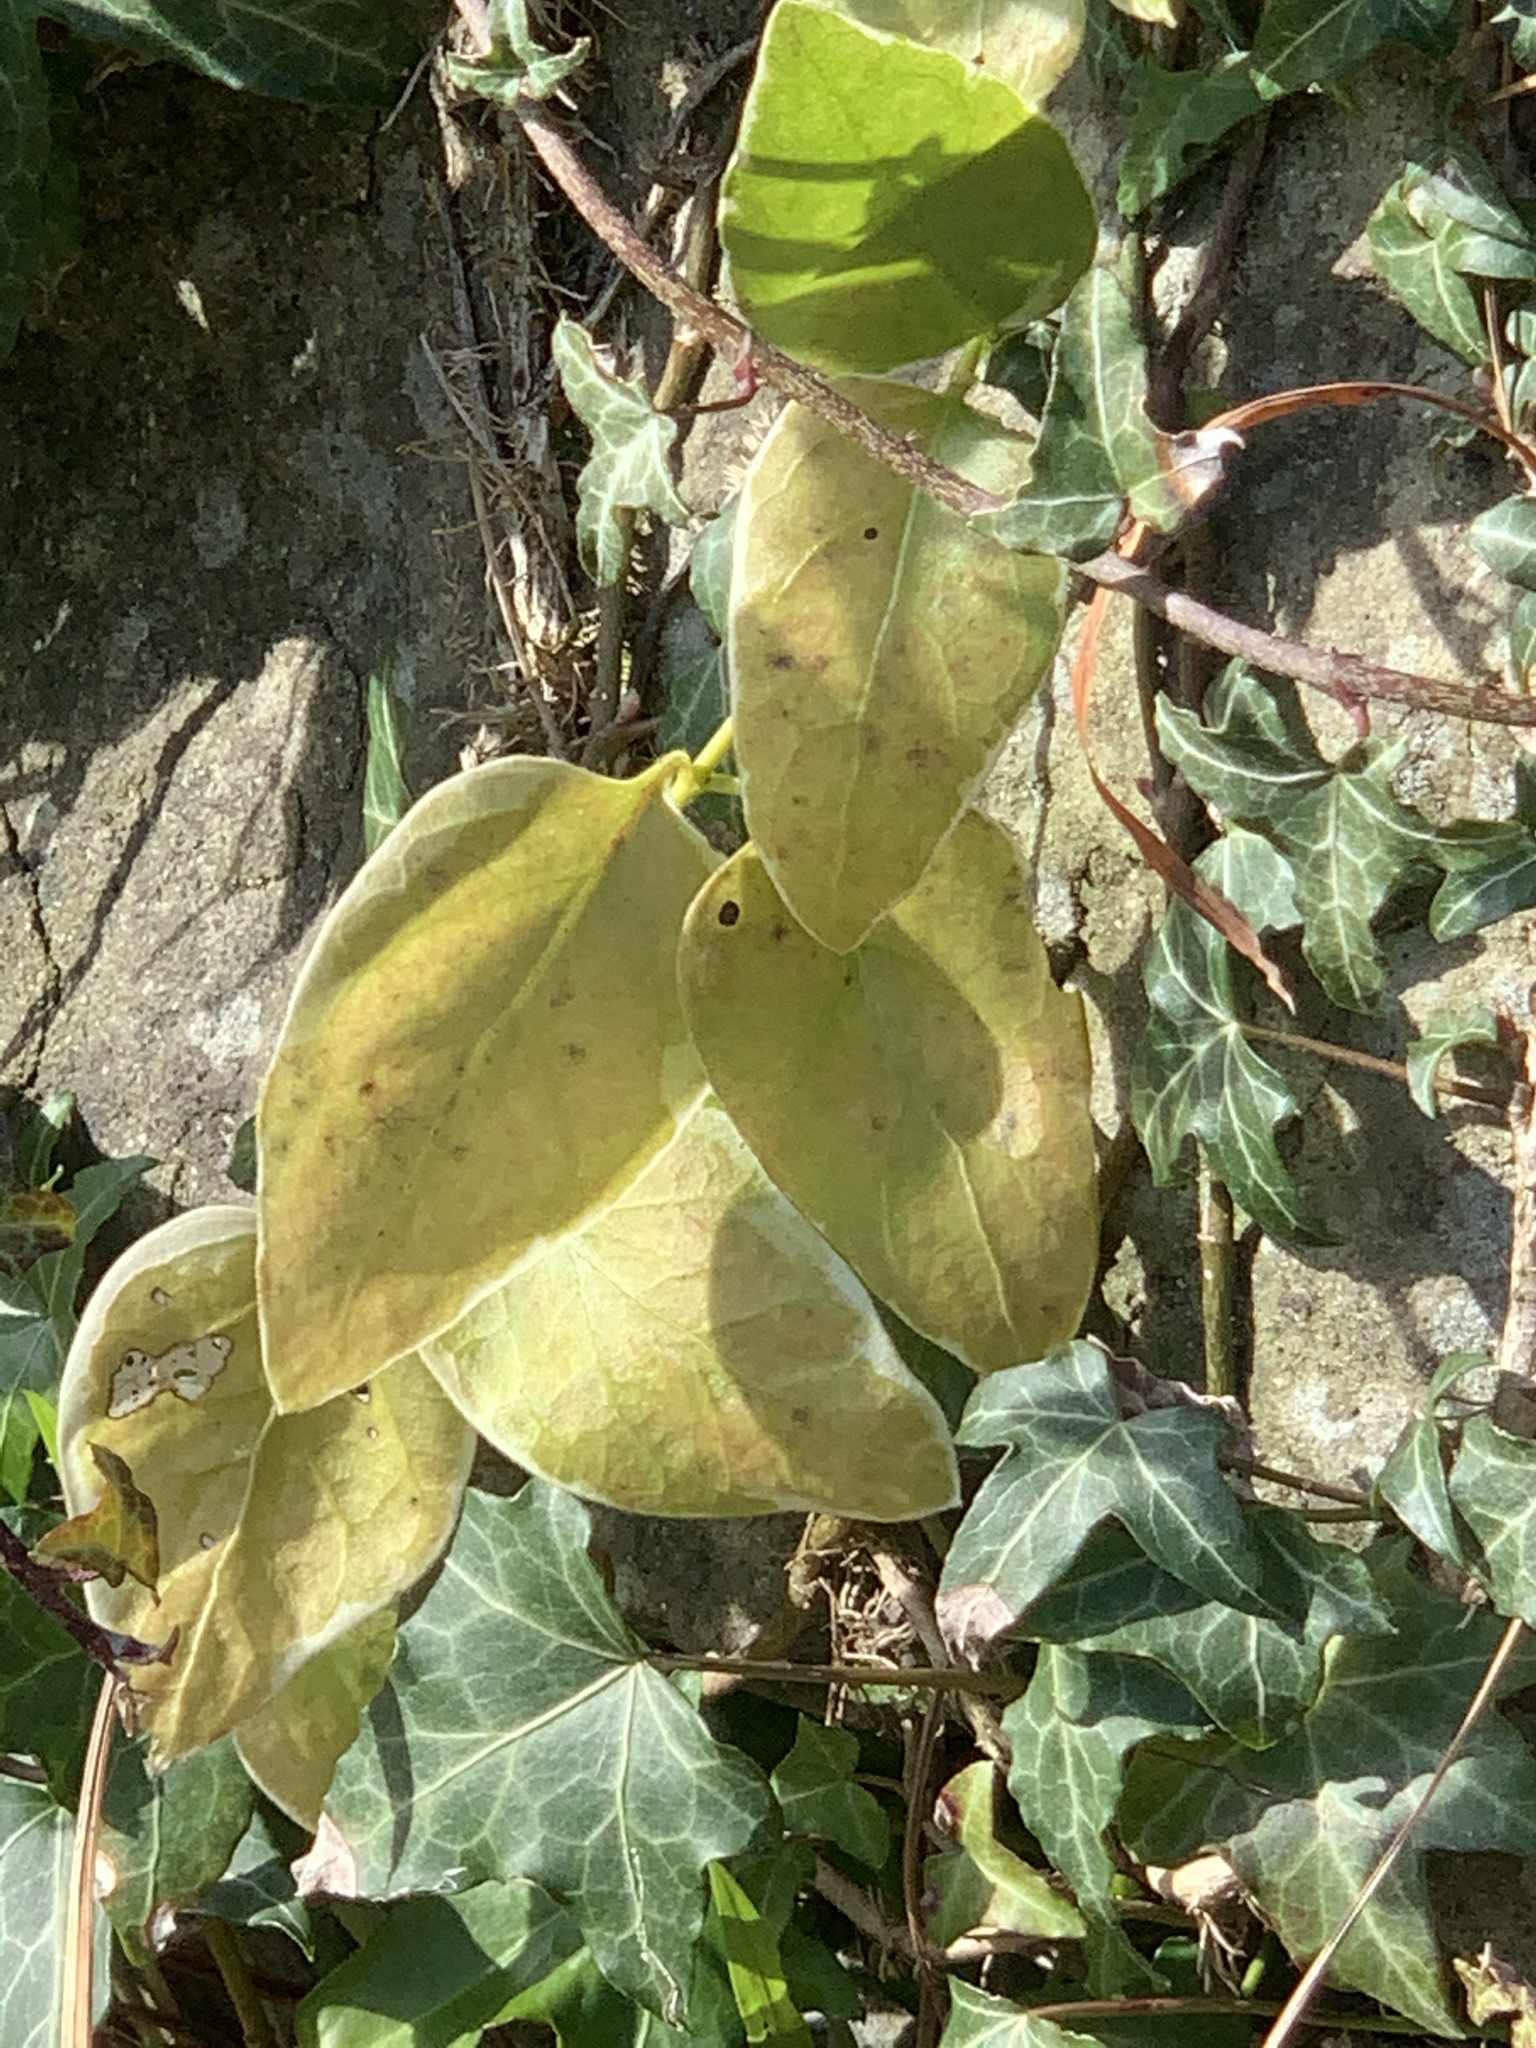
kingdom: Plantae
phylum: Tracheophyta
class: Magnoliopsida
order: Gentianales
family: Apocynaceae
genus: Vinca
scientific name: Vinca major
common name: Greater periwinkle
